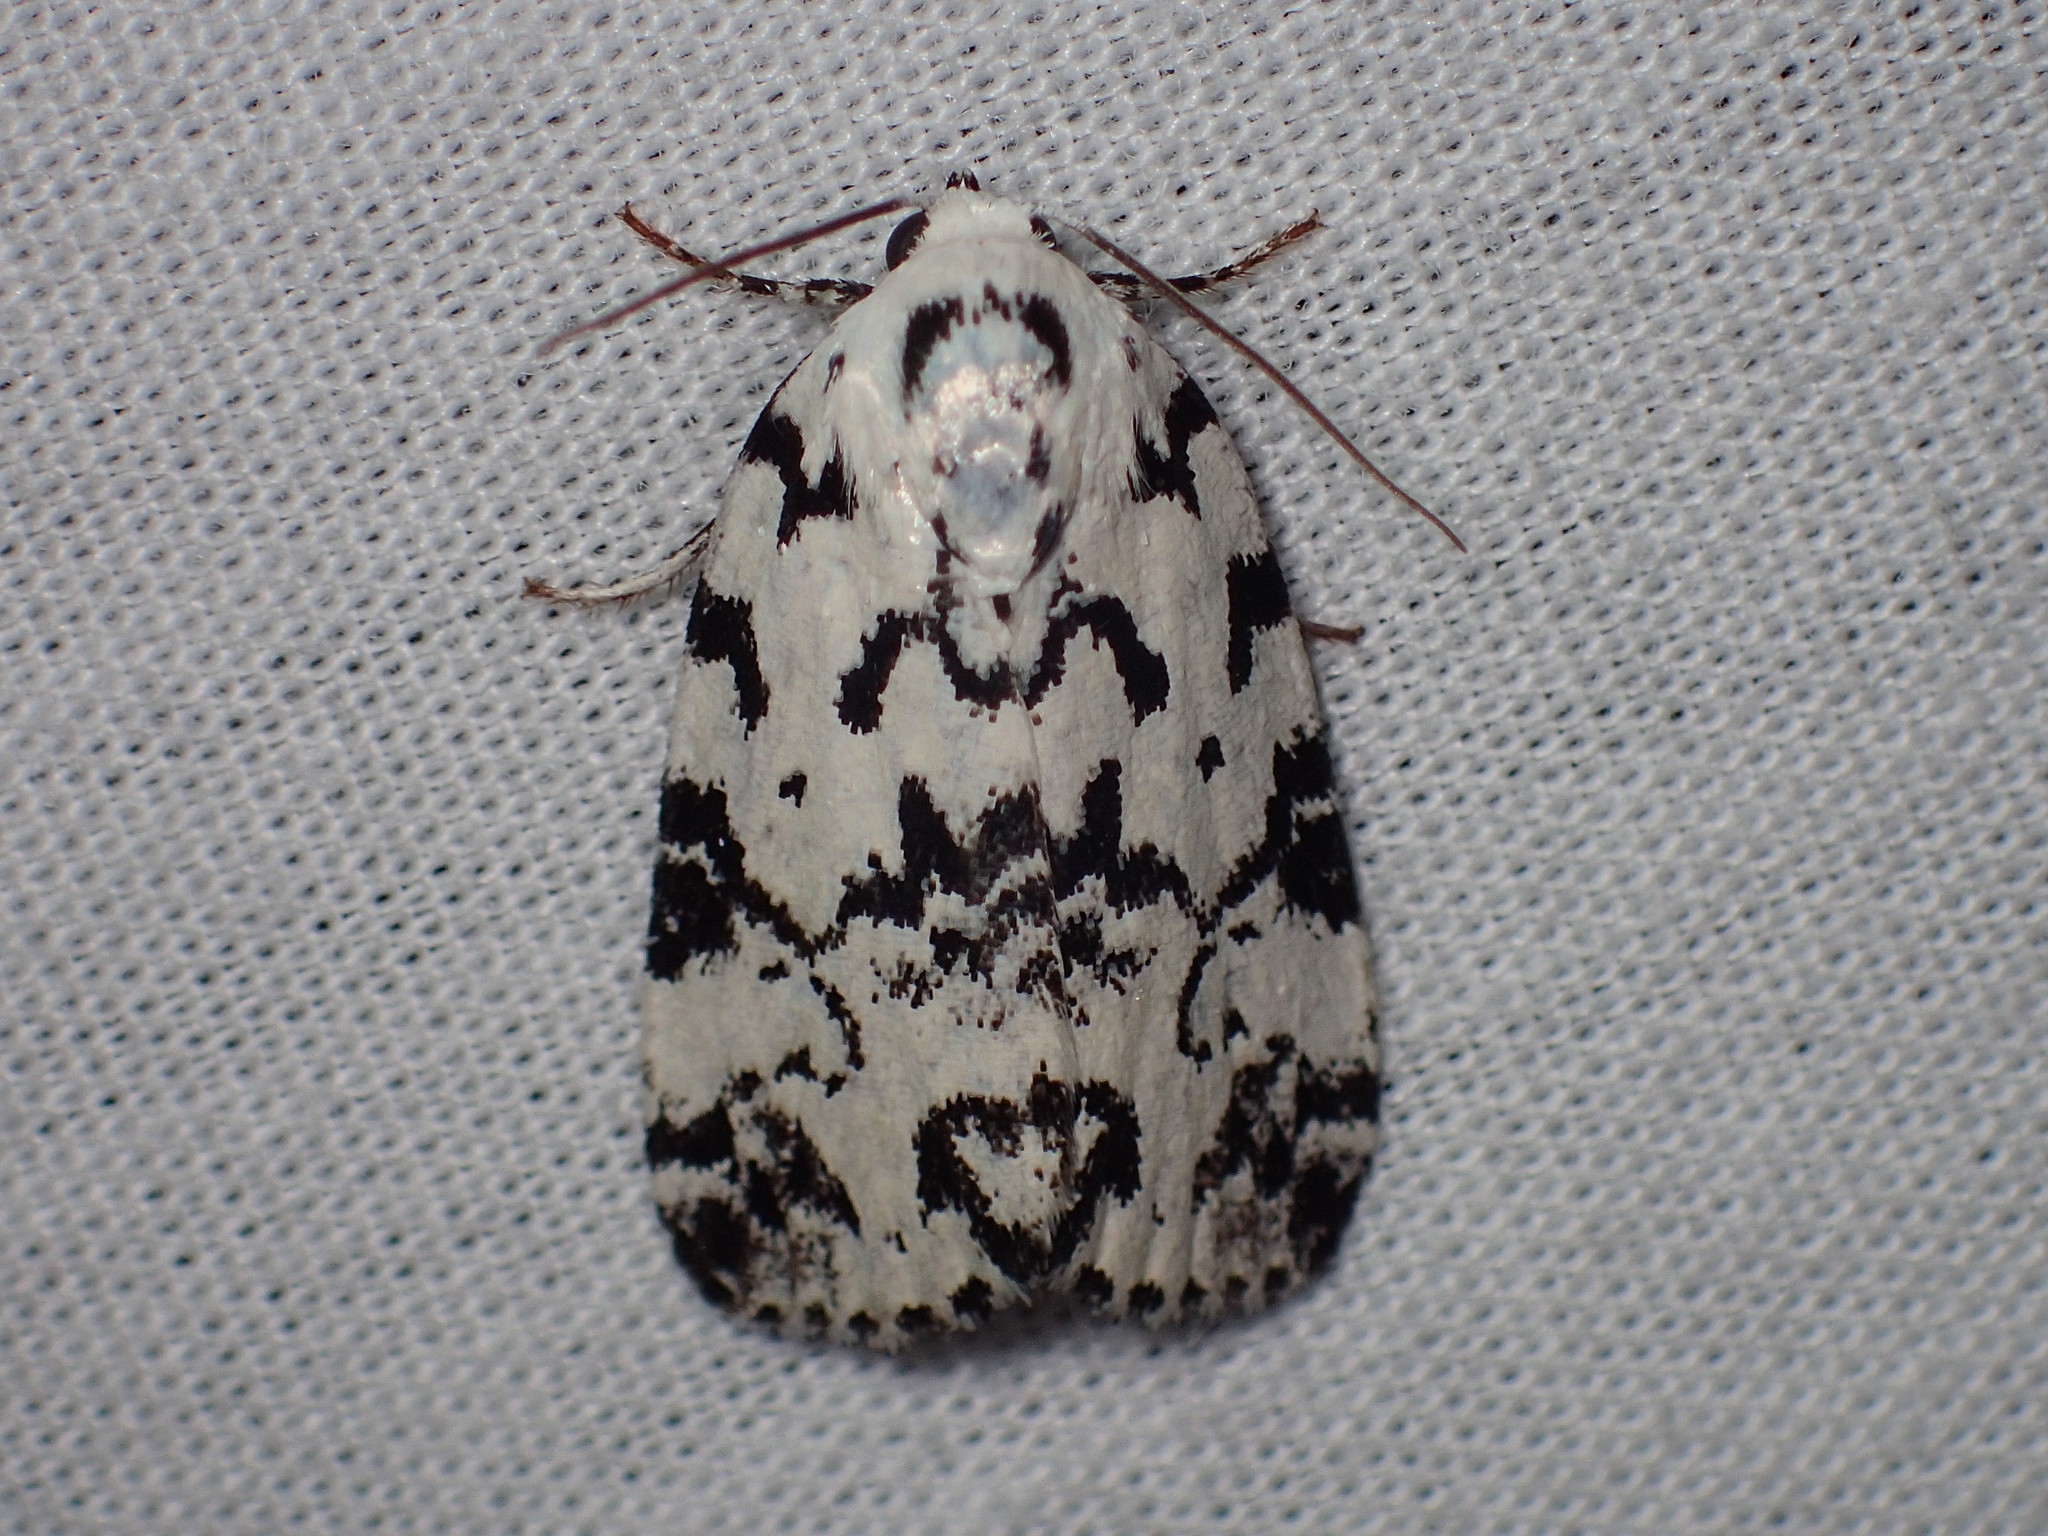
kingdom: Animalia
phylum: Arthropoda
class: Insecta
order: Lepidoptera
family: Noctuidae
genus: Polygrammate
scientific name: Polygrammate hebraeicum
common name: Hebrew moth
